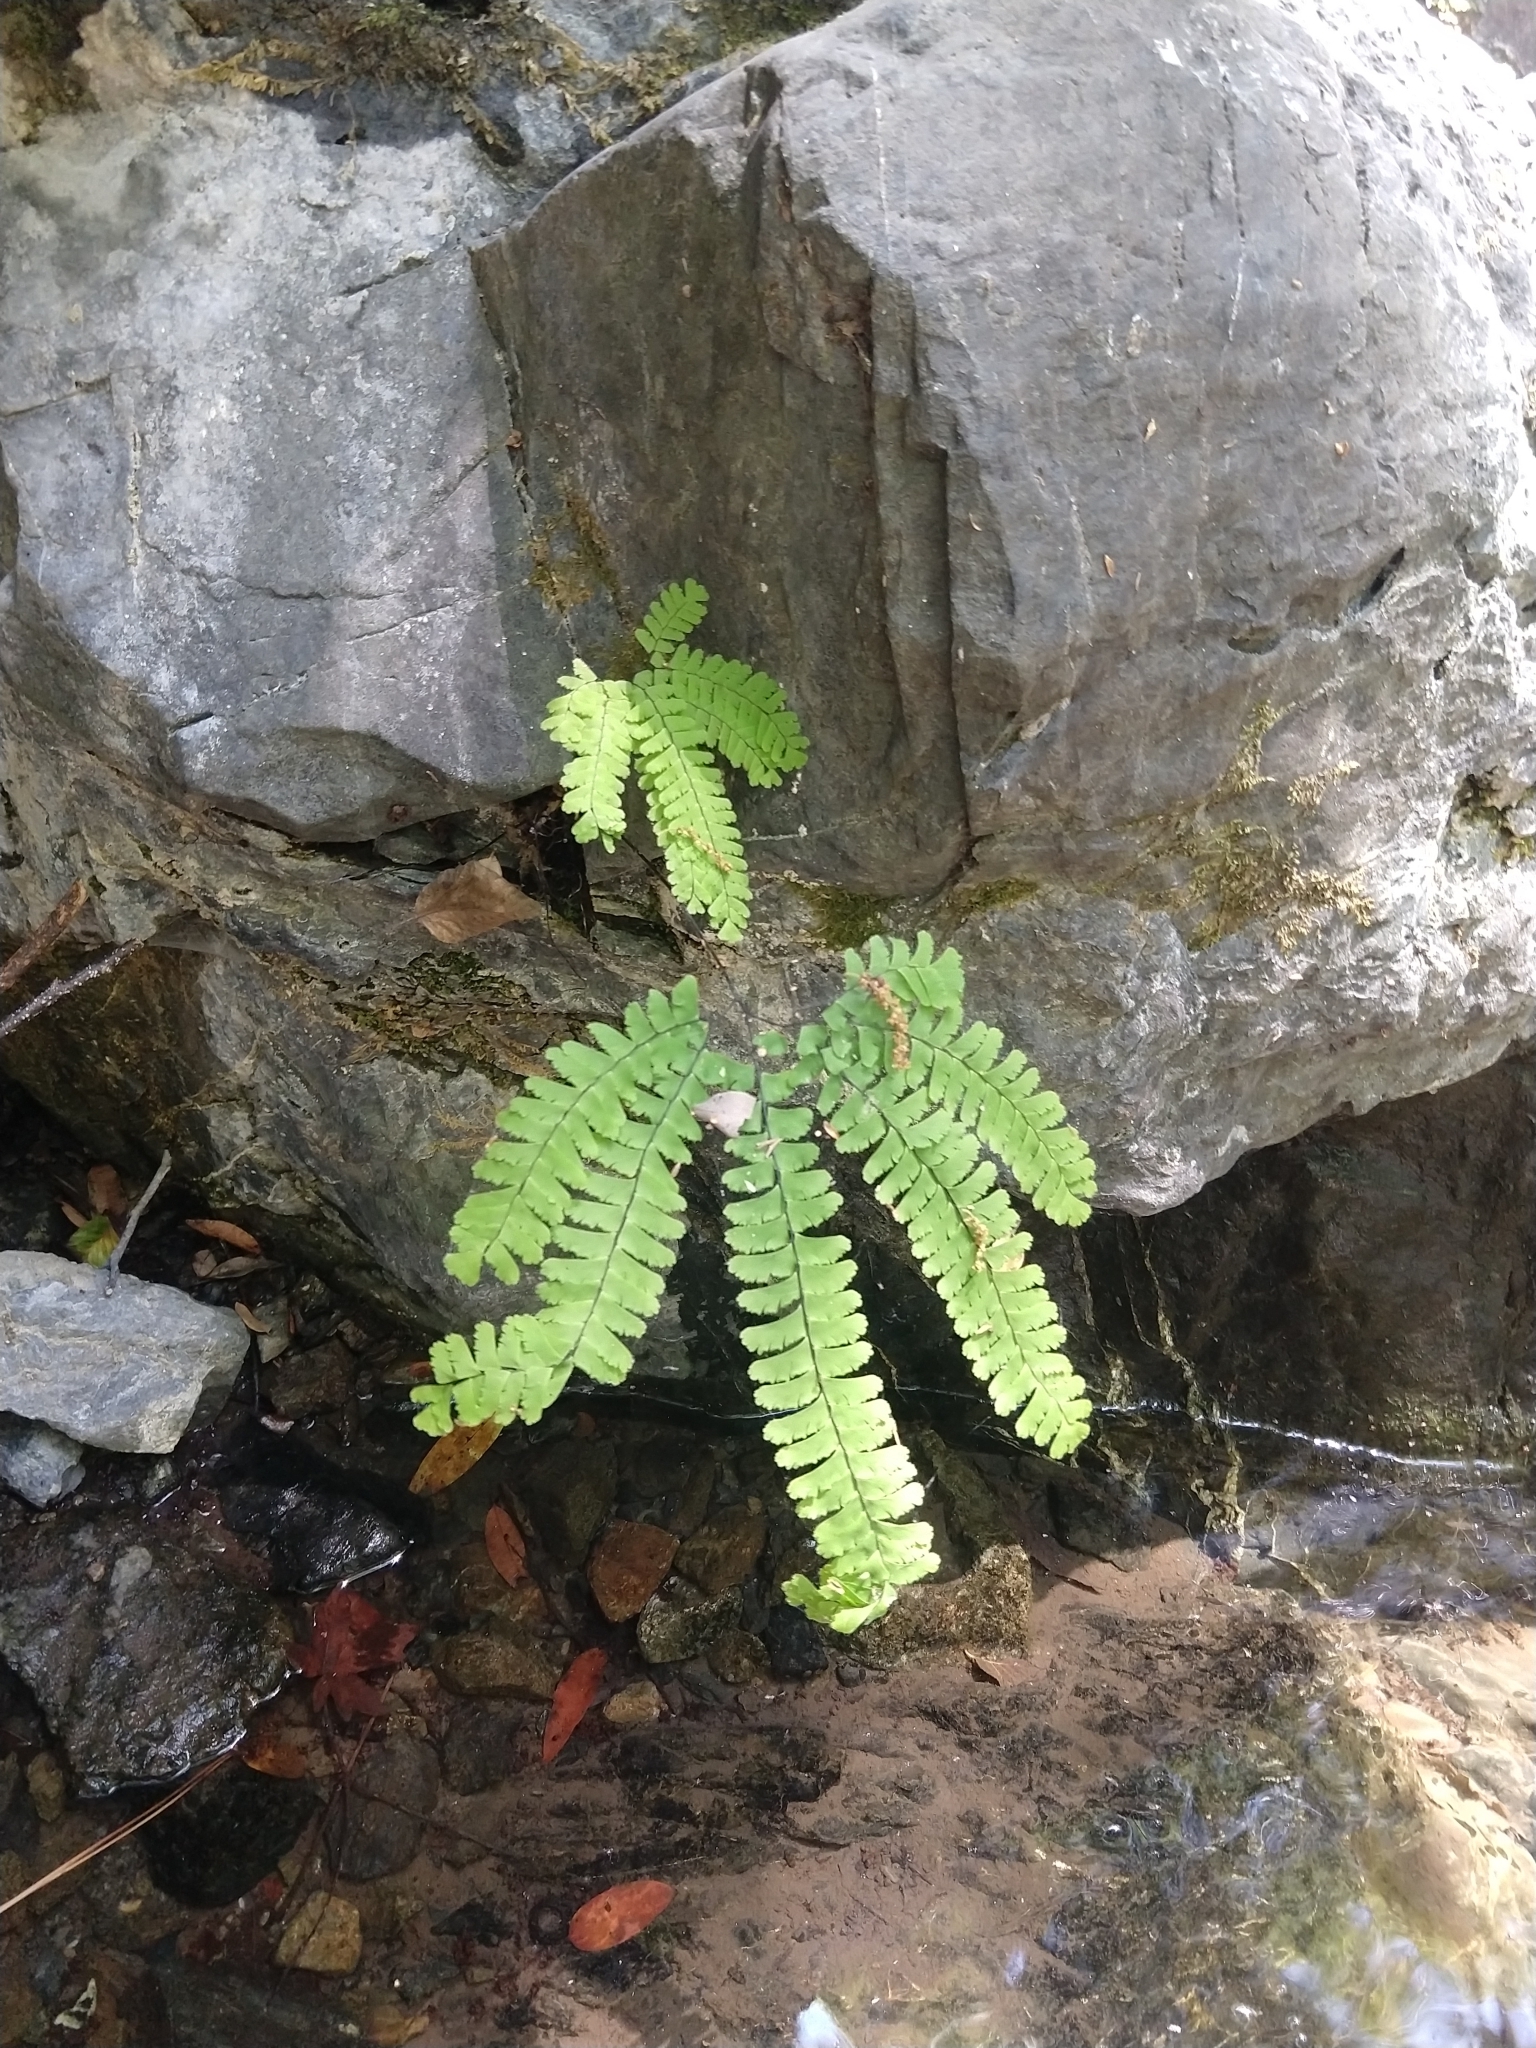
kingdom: Plantae
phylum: Tracheophyta
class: Polypodiopsida
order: Polypodiales
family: Pteridaceae
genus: Adiantum
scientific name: Adiantum aleuticum
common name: Aleutian maidenhair fern
